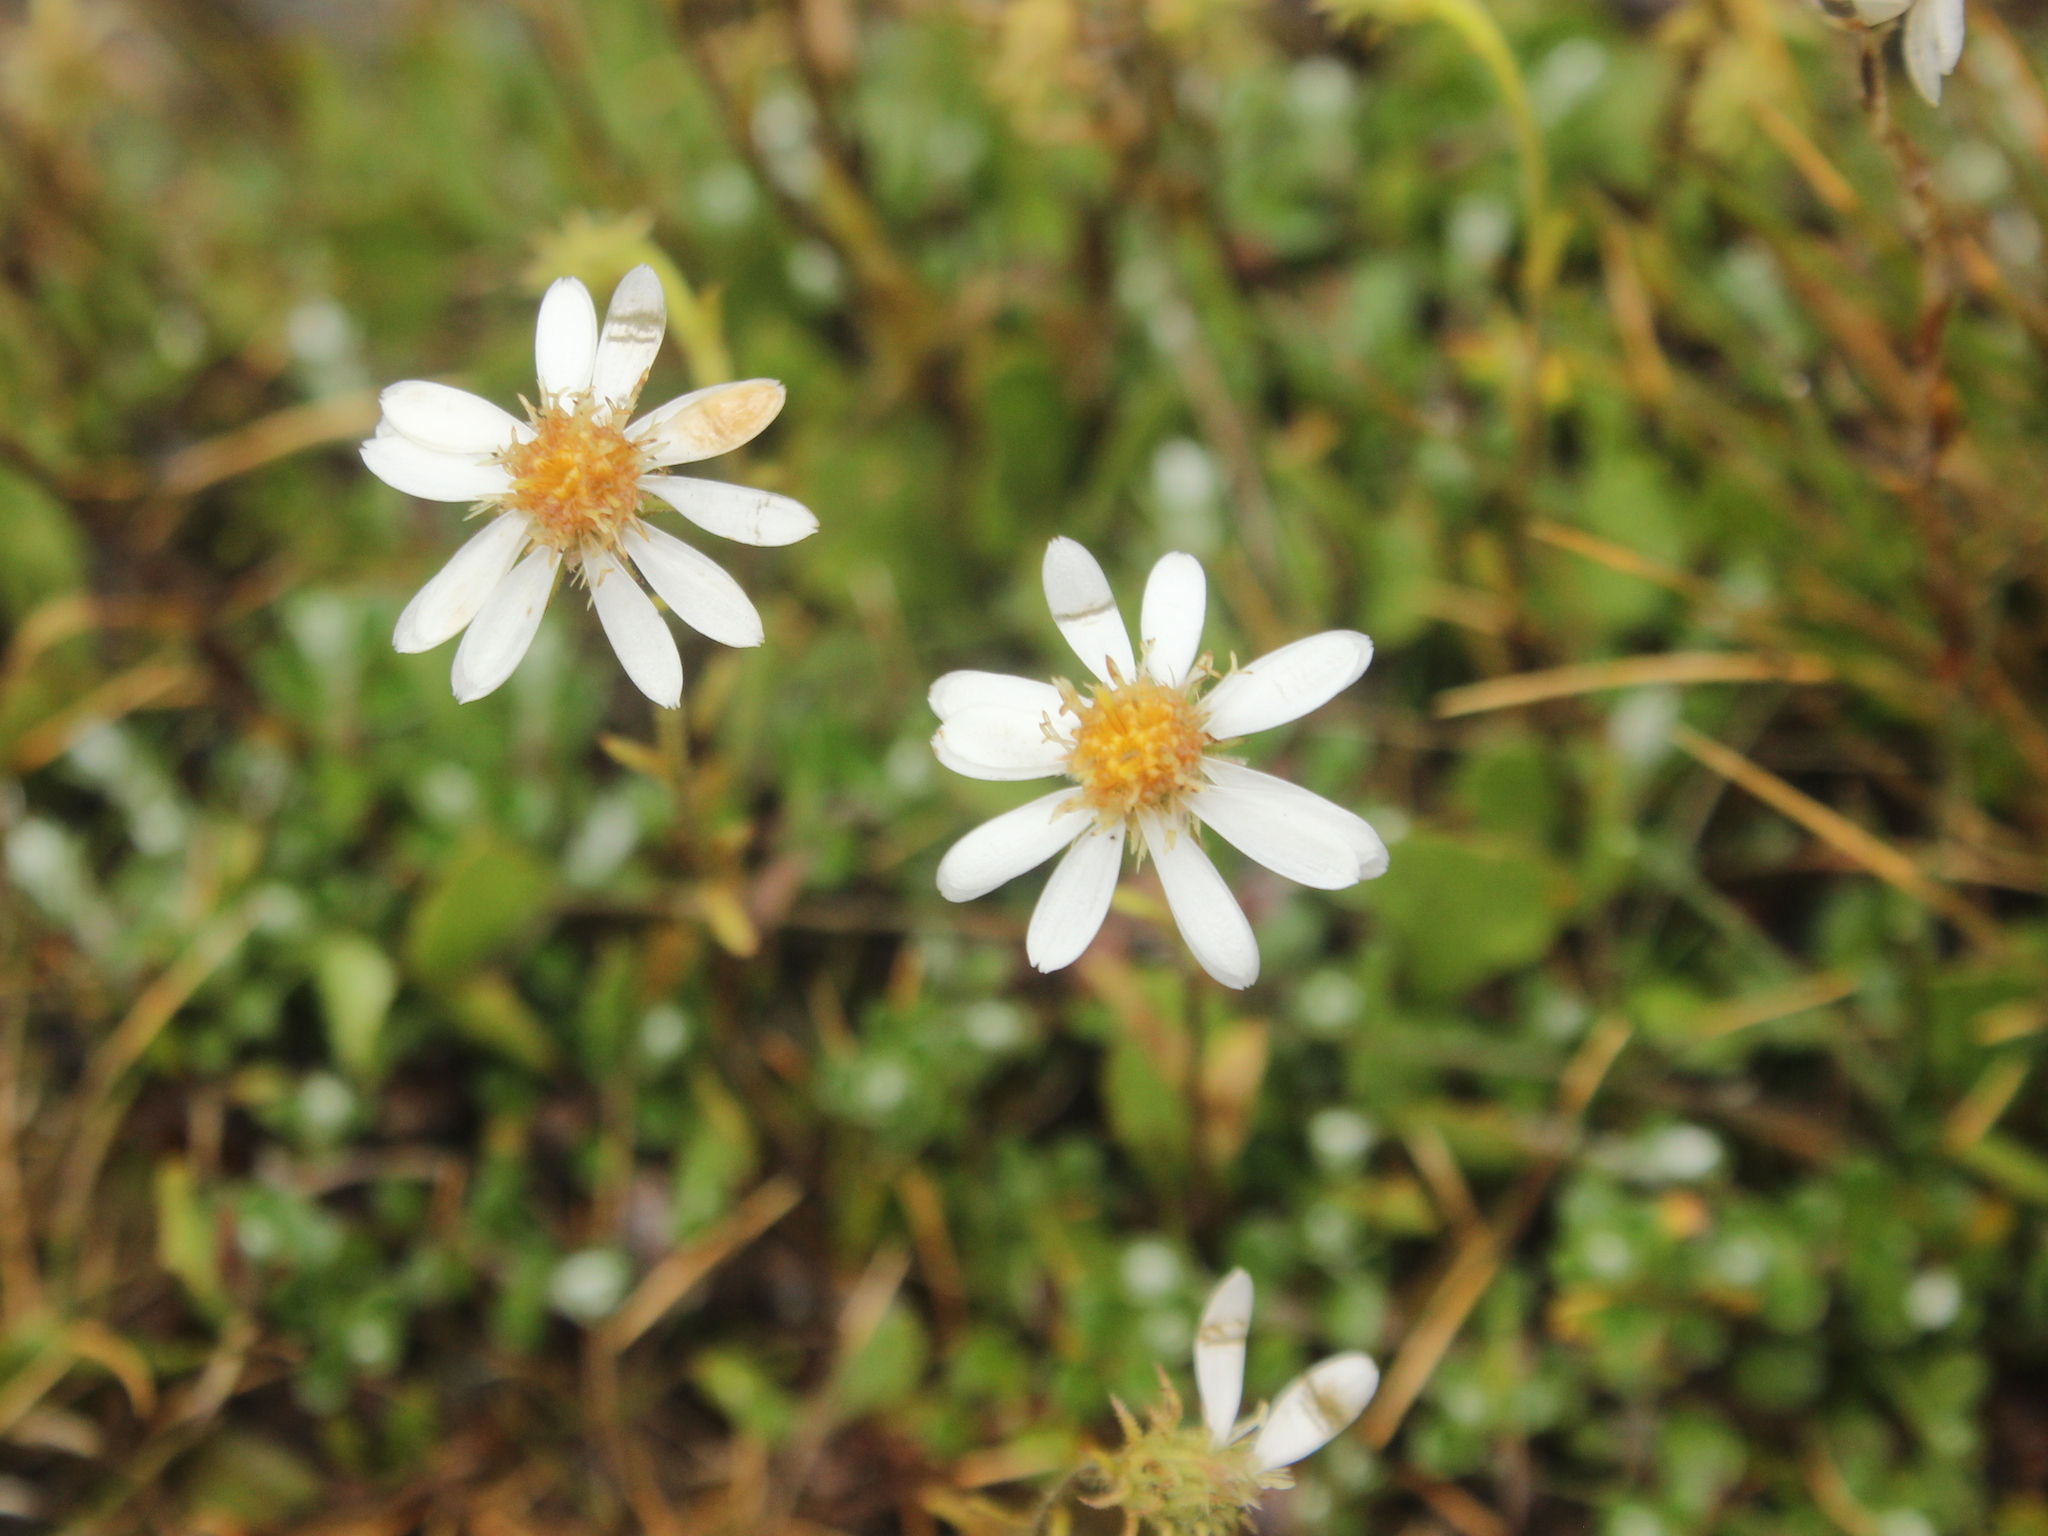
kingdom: Plantae
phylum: Tracheophyta
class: Magnoliopsida
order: Asterales
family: Asteraceae
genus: Celmisia
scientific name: Celmisia glandulosa
